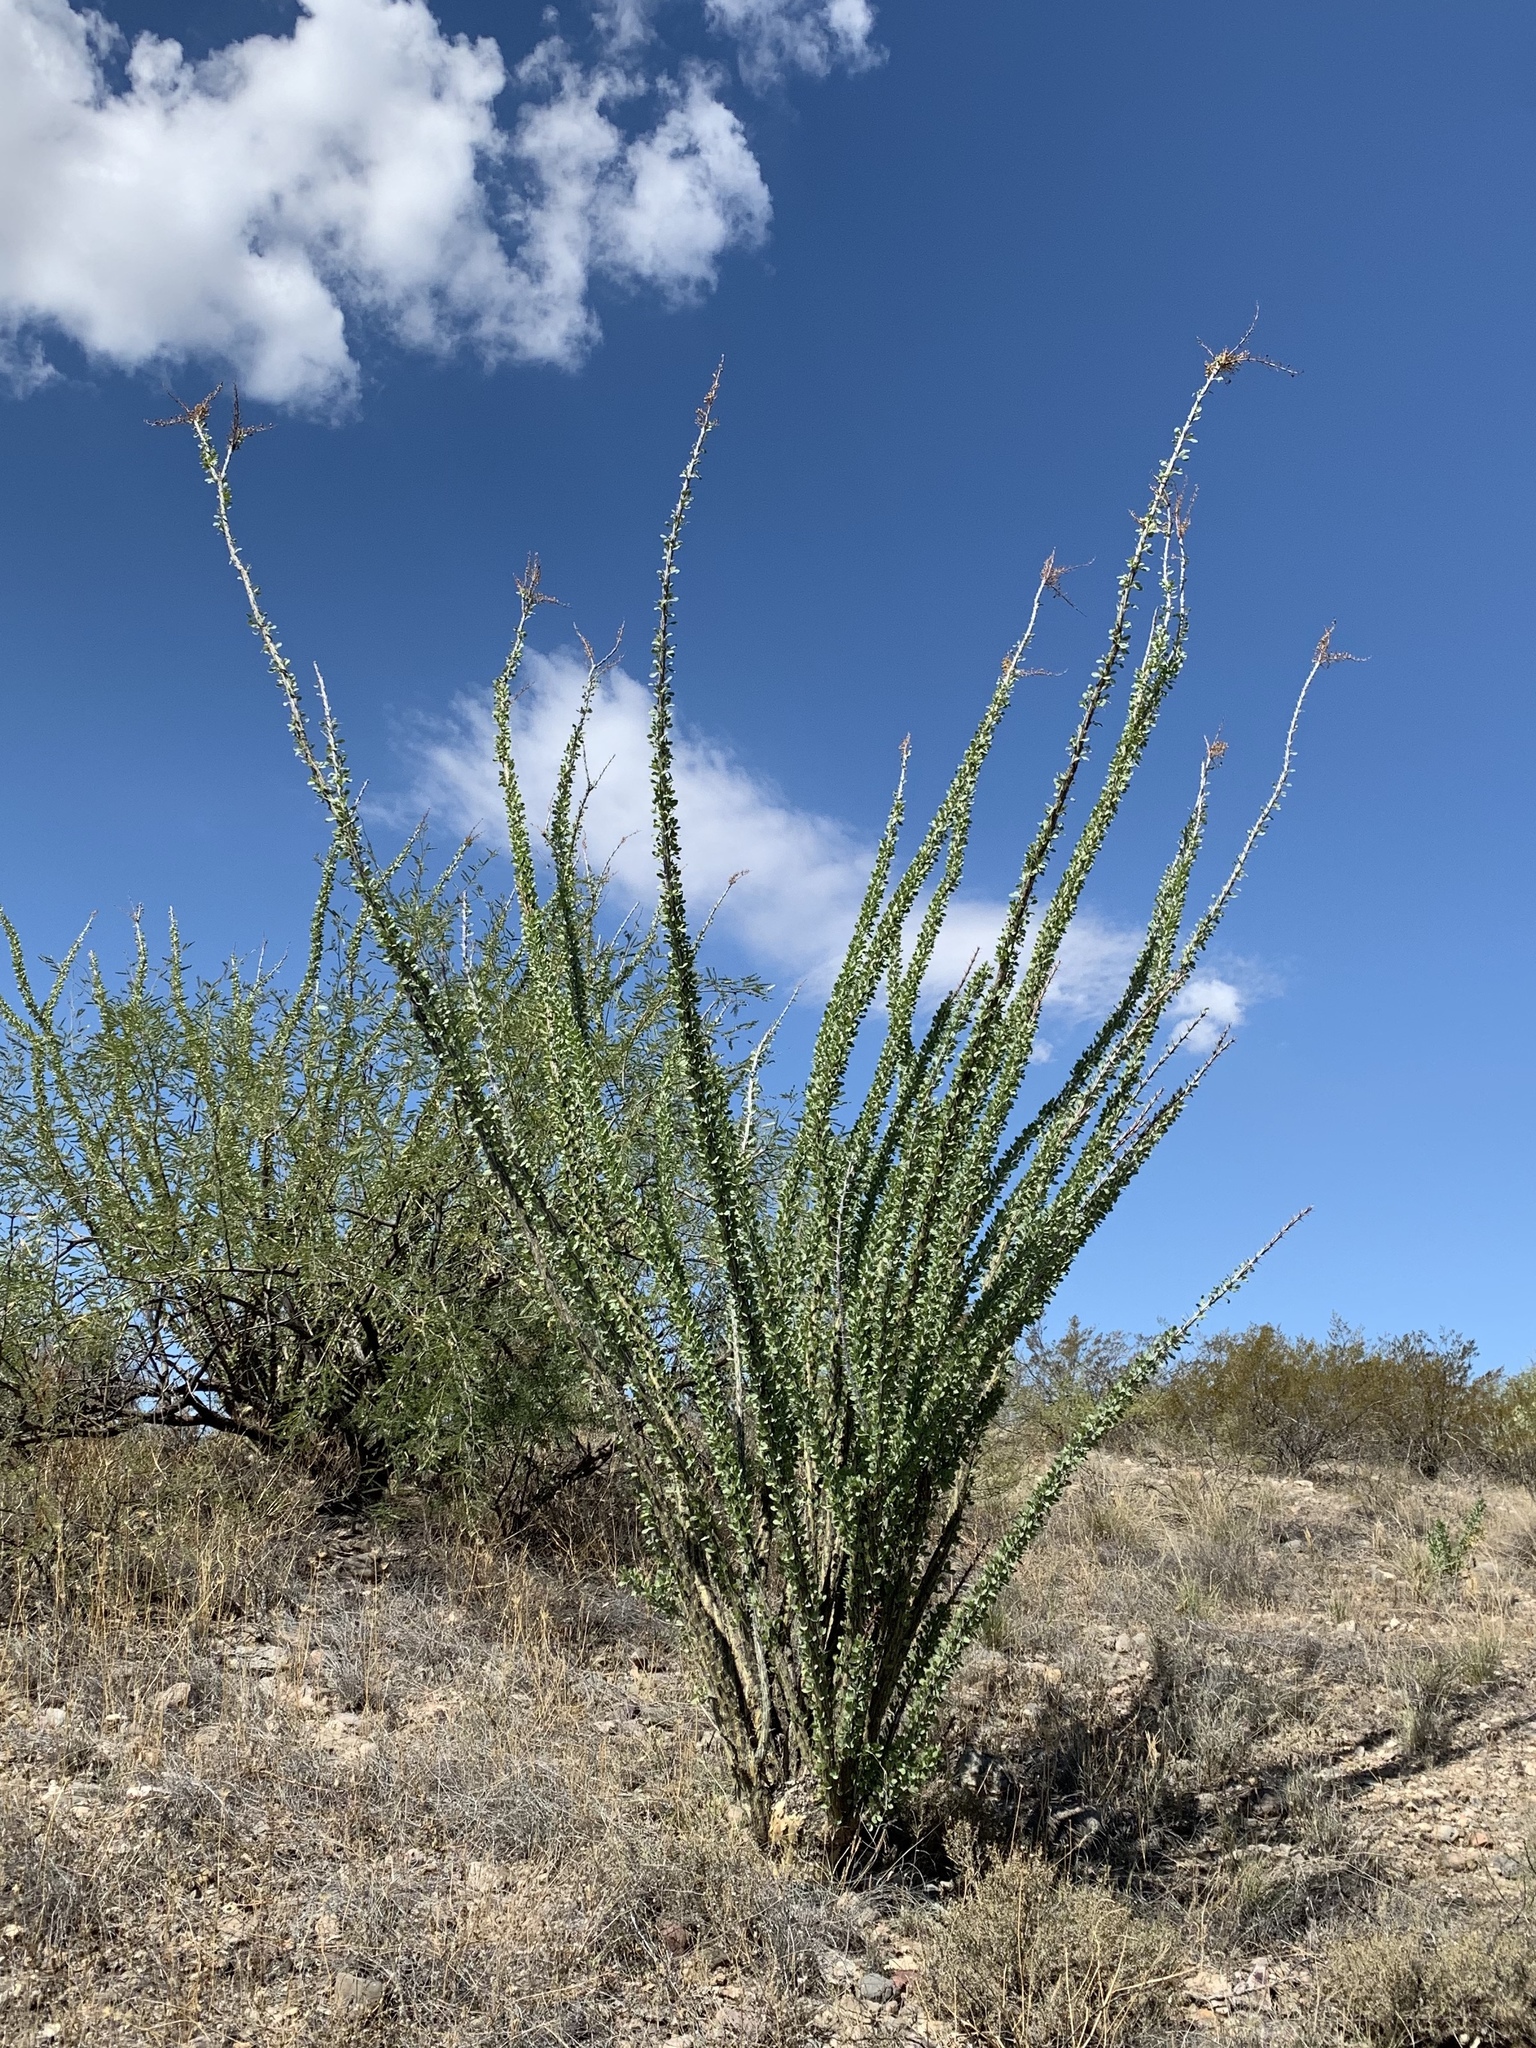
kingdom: Plantae
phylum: Tracheophyta
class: Magnoliopsida
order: Ericales
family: Fouquieriaceae
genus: Fouquieria
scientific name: Fouquieria splendens
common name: Vine-cactus
